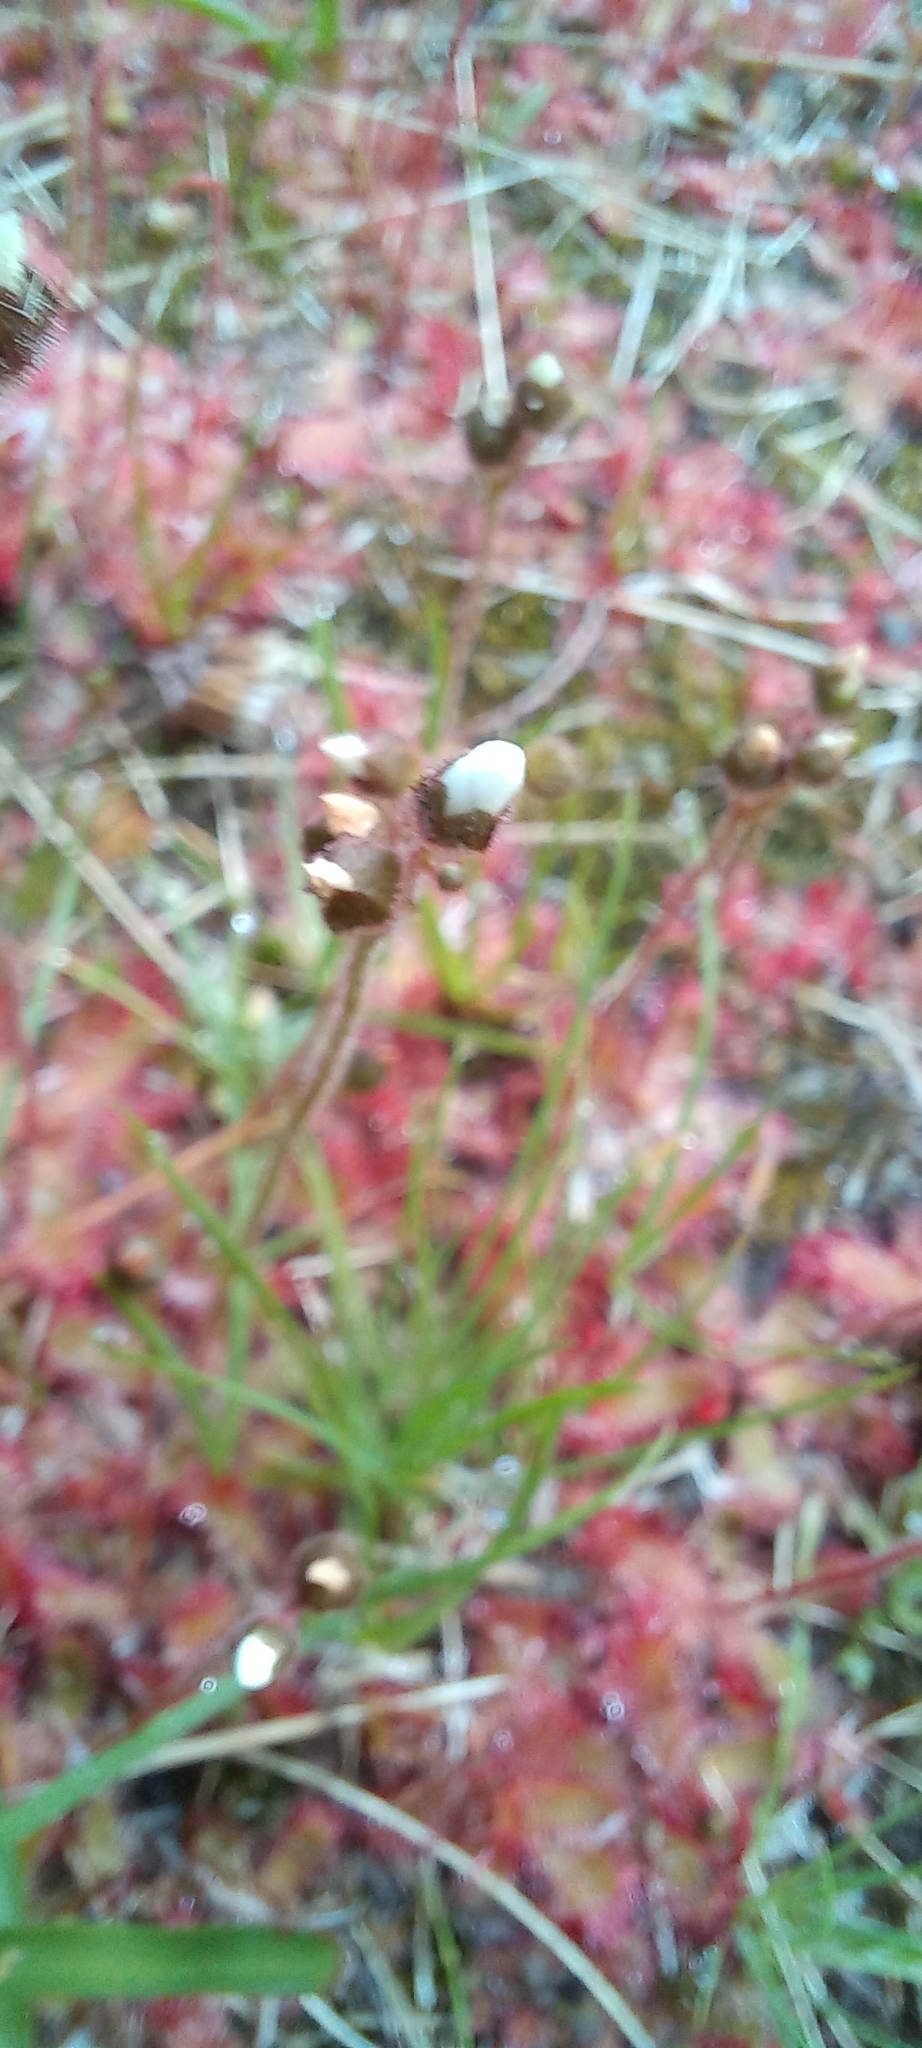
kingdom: Plantae
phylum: Tracheophyta
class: Magnoliopsida
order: Caryophyllales
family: Droseraceae
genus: Drosera
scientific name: Drosera trinervia
